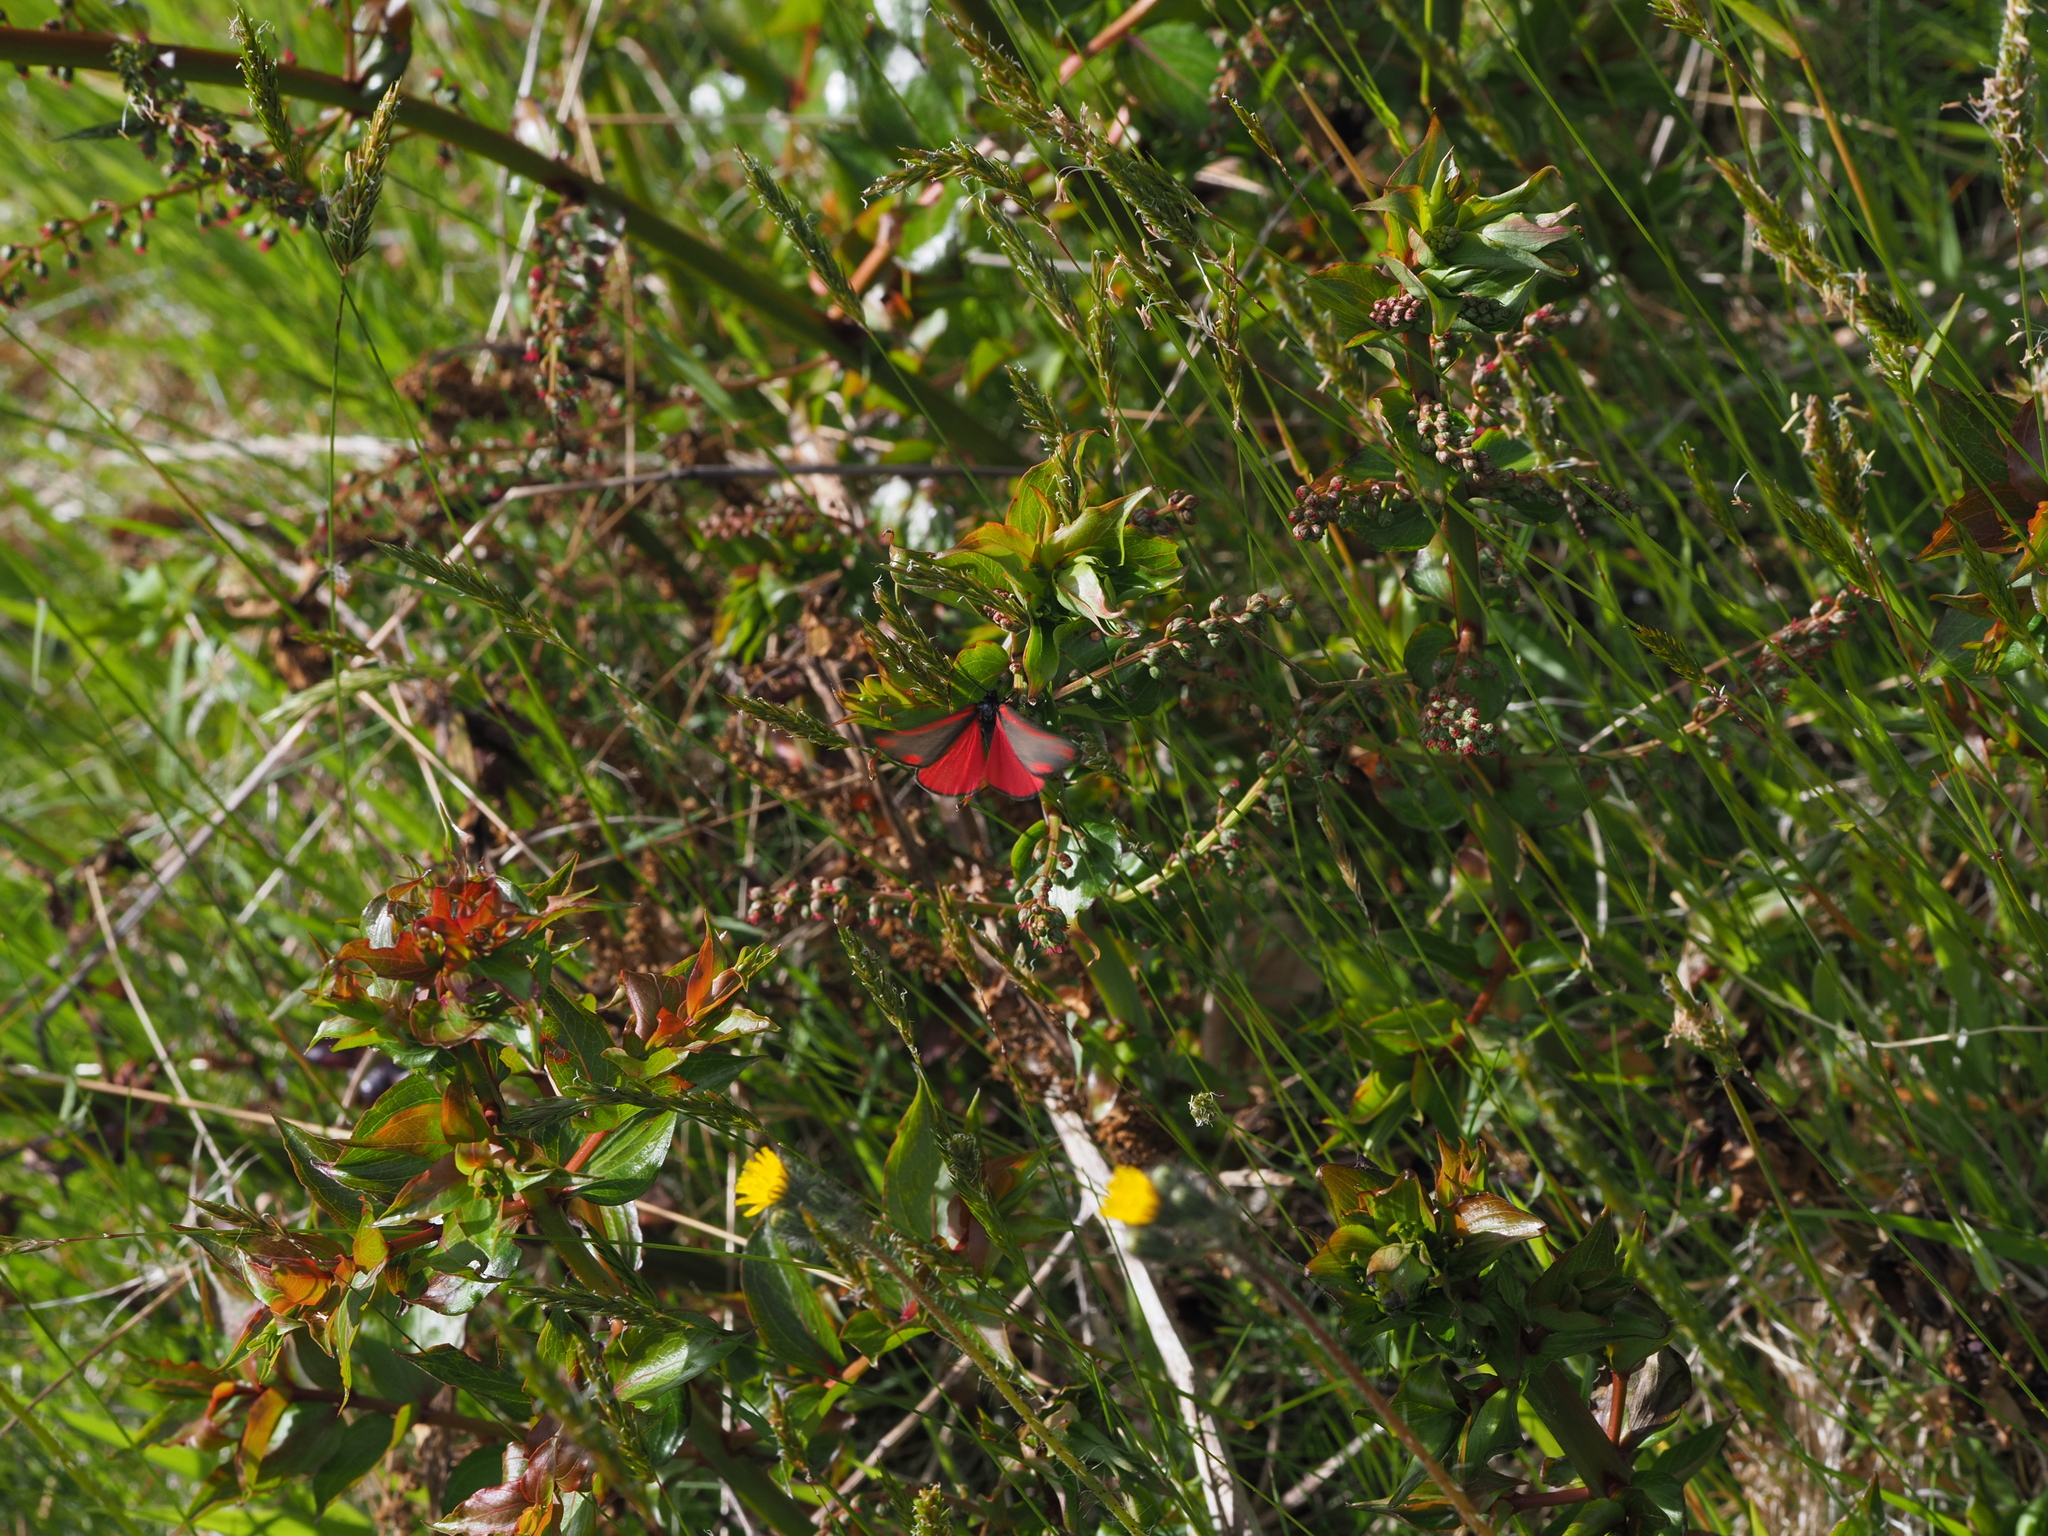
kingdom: Animalia
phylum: Arthropoda
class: Insecta
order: Lepidoptera
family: Erebidae
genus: Tyria
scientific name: Tyria jacobaeae
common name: Cinnabar
